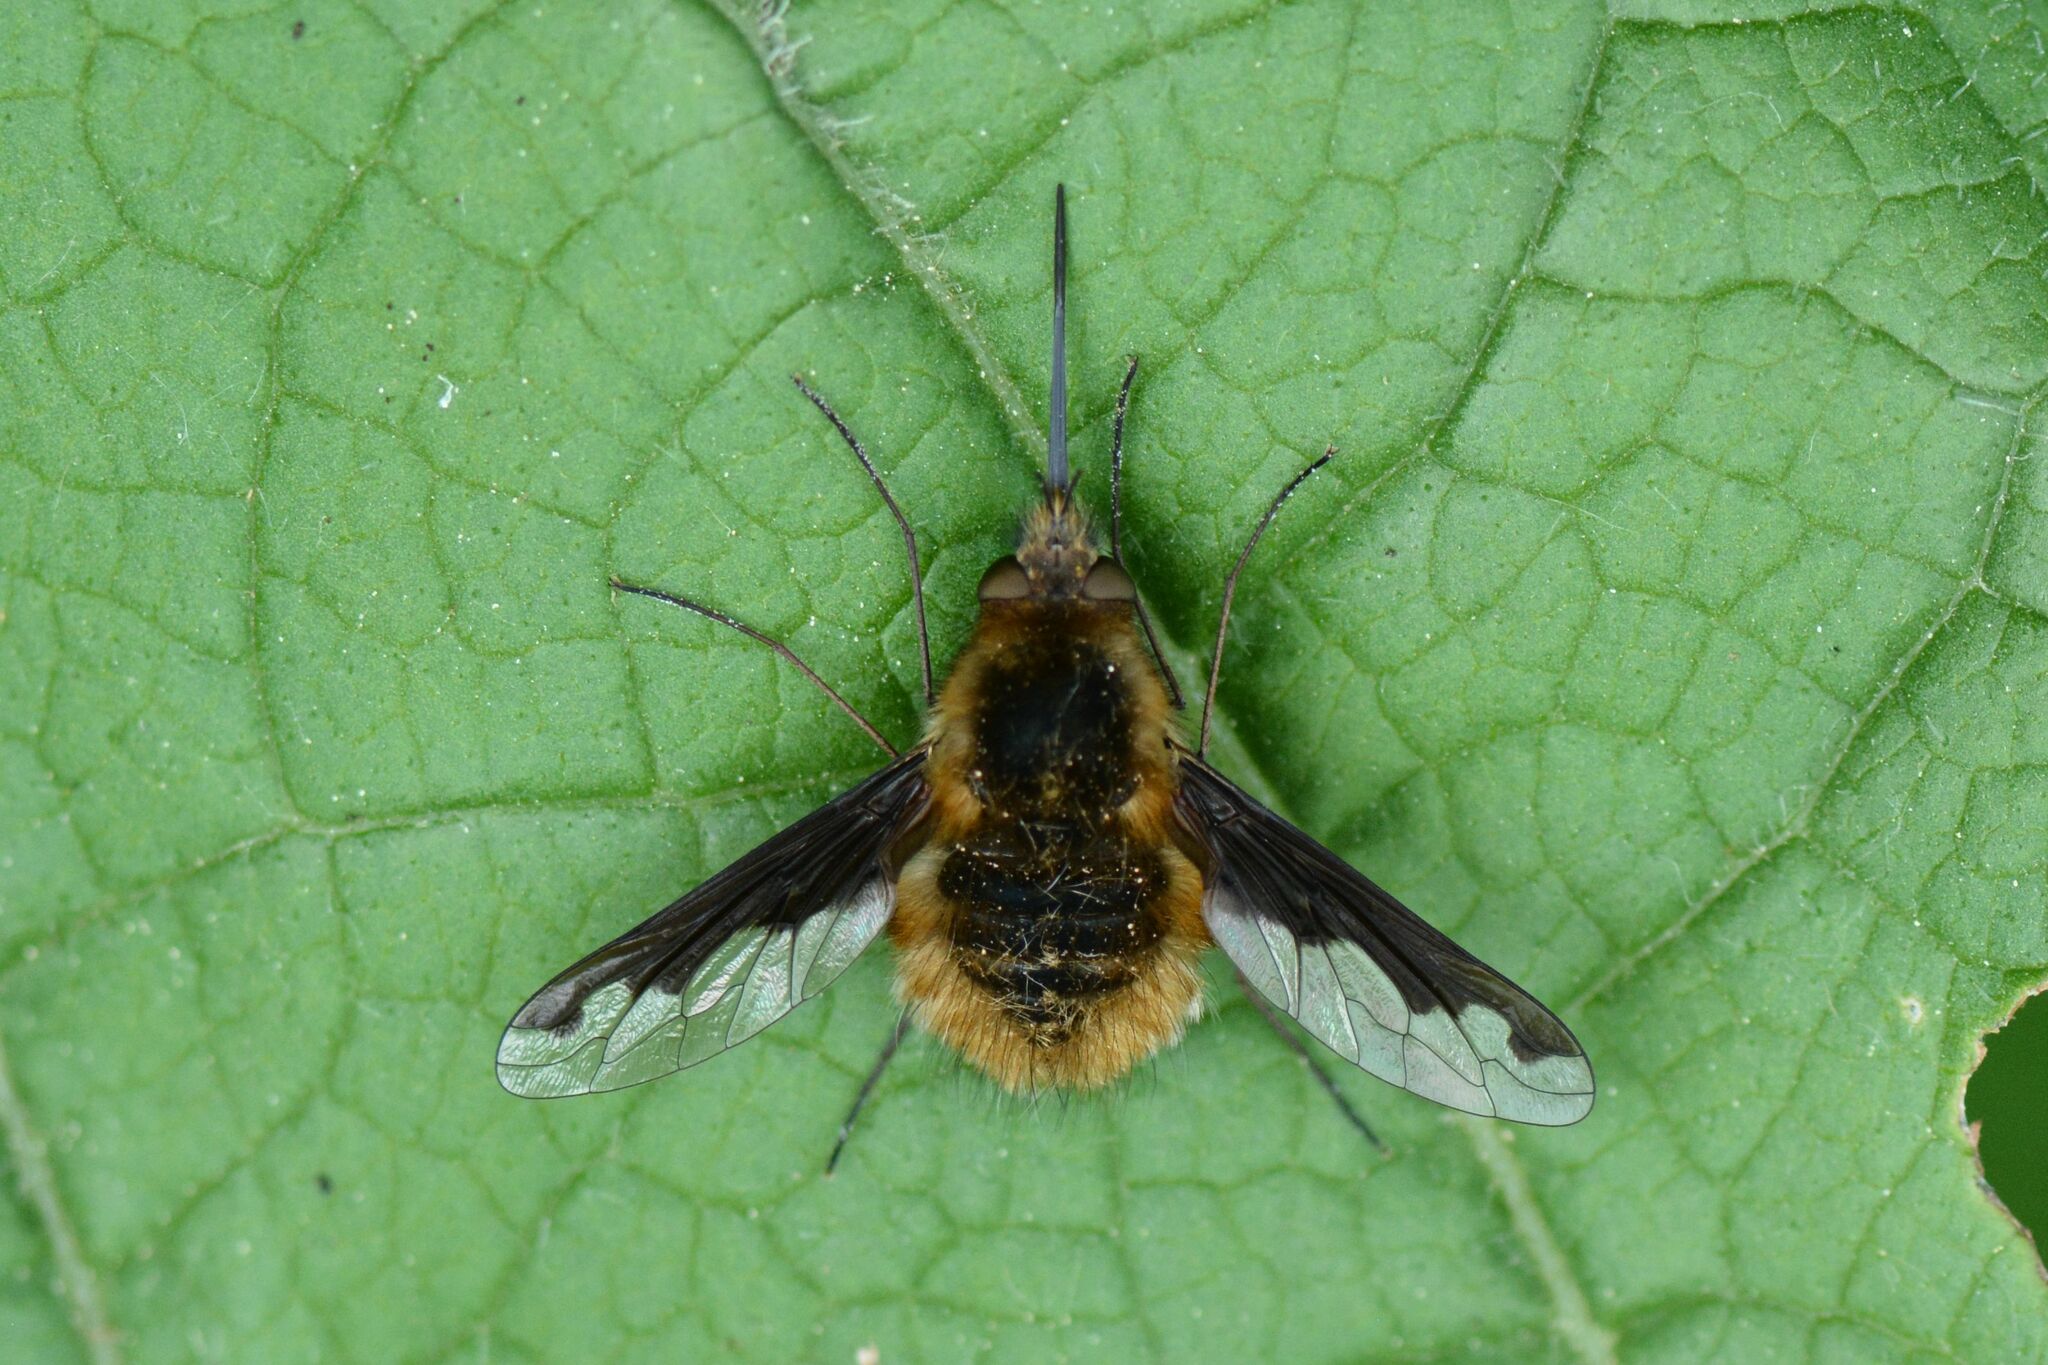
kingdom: Animalia
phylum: Arthropoda
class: Insecta
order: Diptera
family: Bombyliidae
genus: Bombylius
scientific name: Bombylius major
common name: Bee fly
